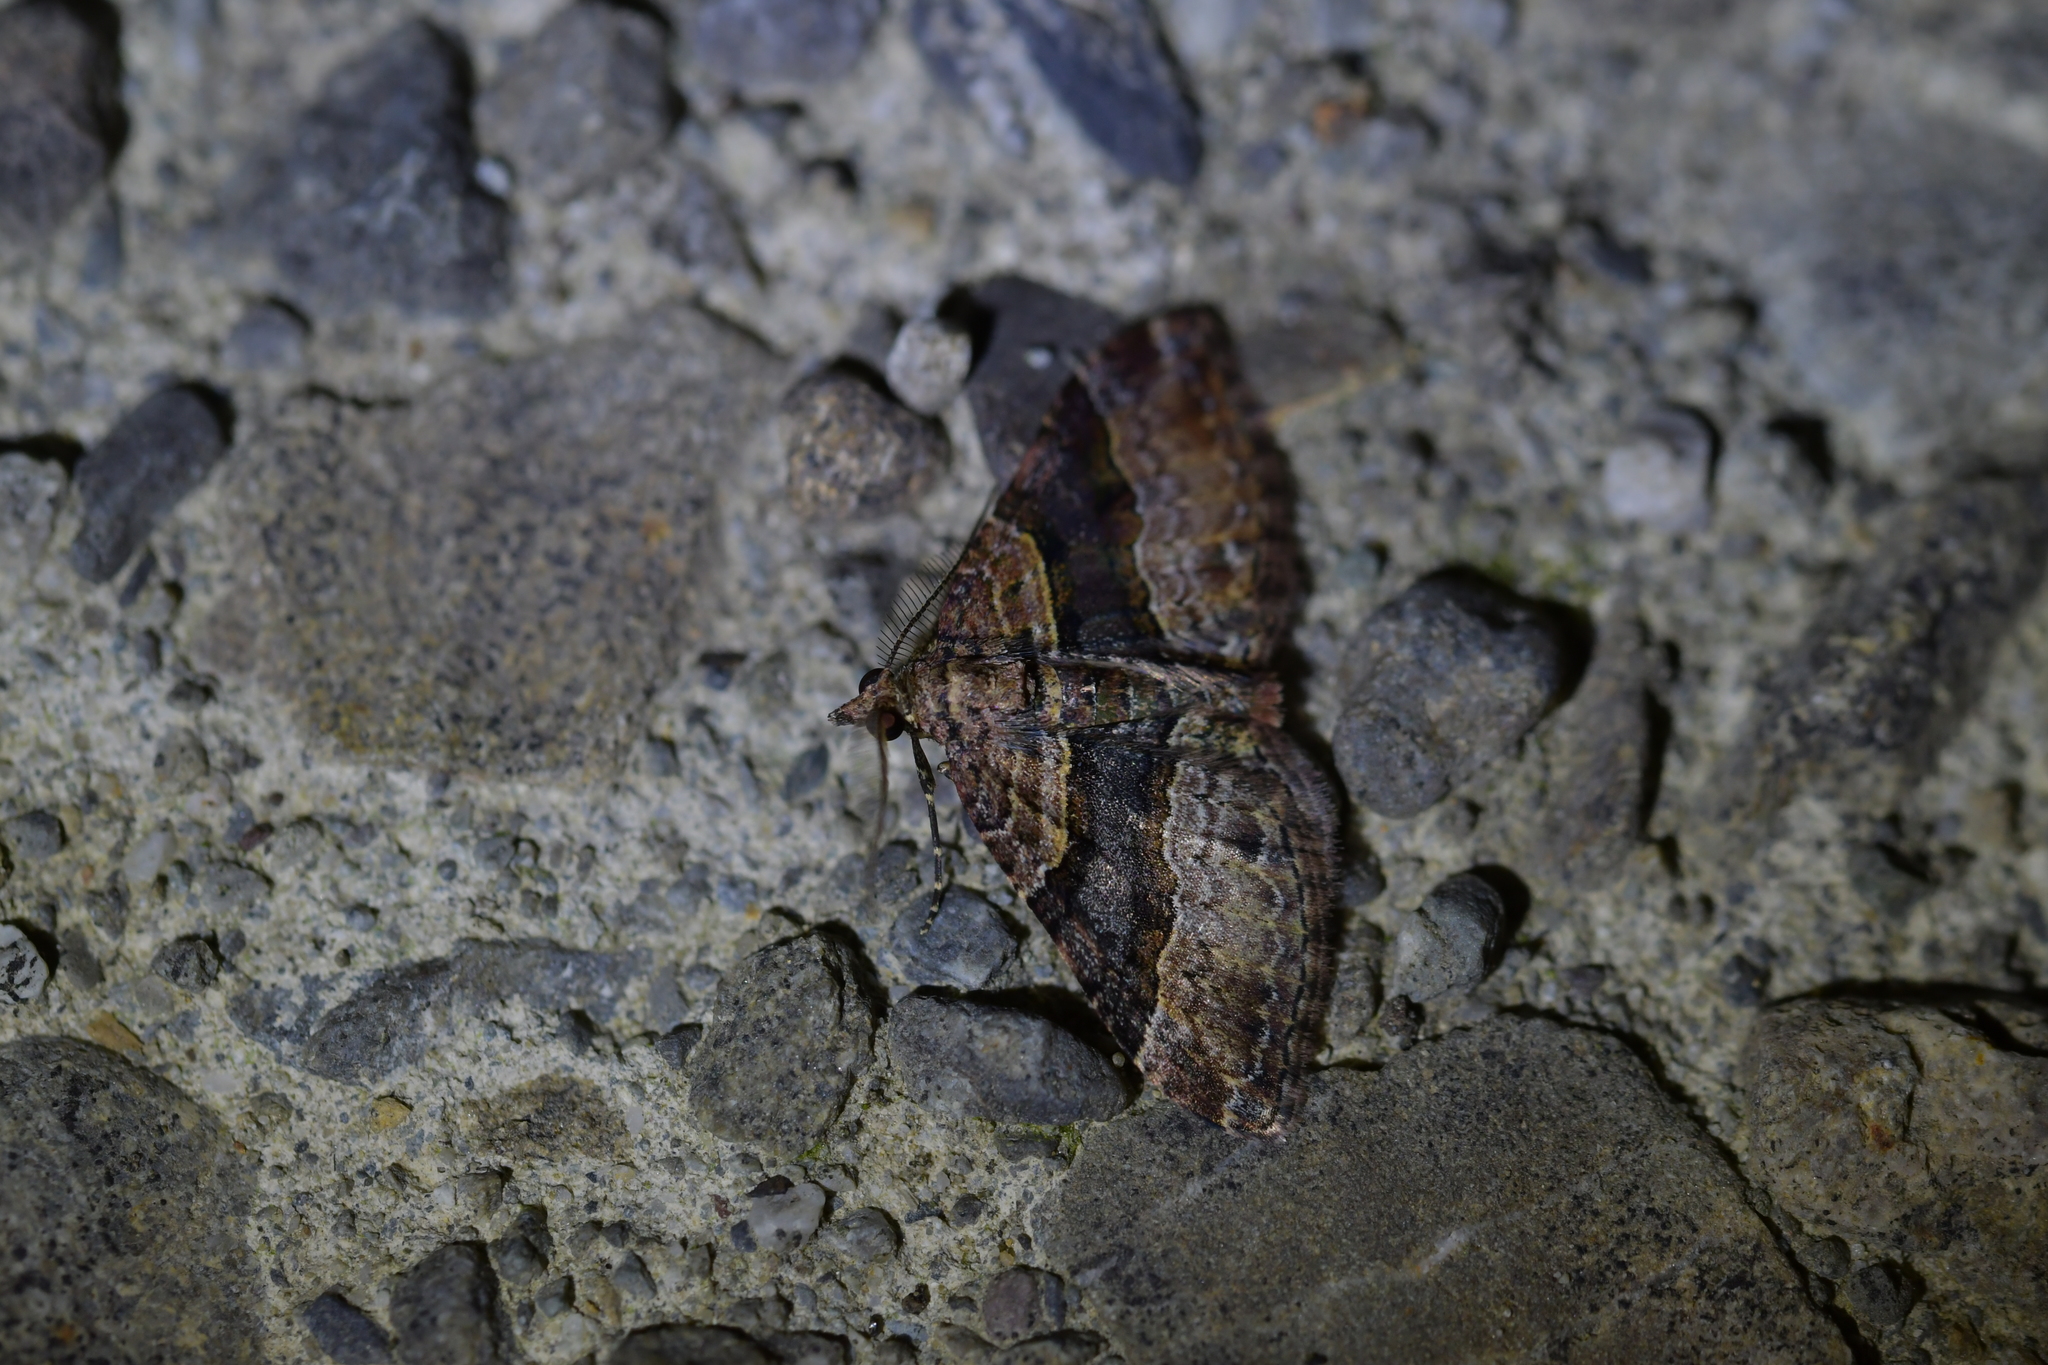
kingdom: Animalia
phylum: Arthropoda
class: Insecta
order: Lepidoptera
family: Geometridae
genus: Epyaxa
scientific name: Epyaxa lucidata
